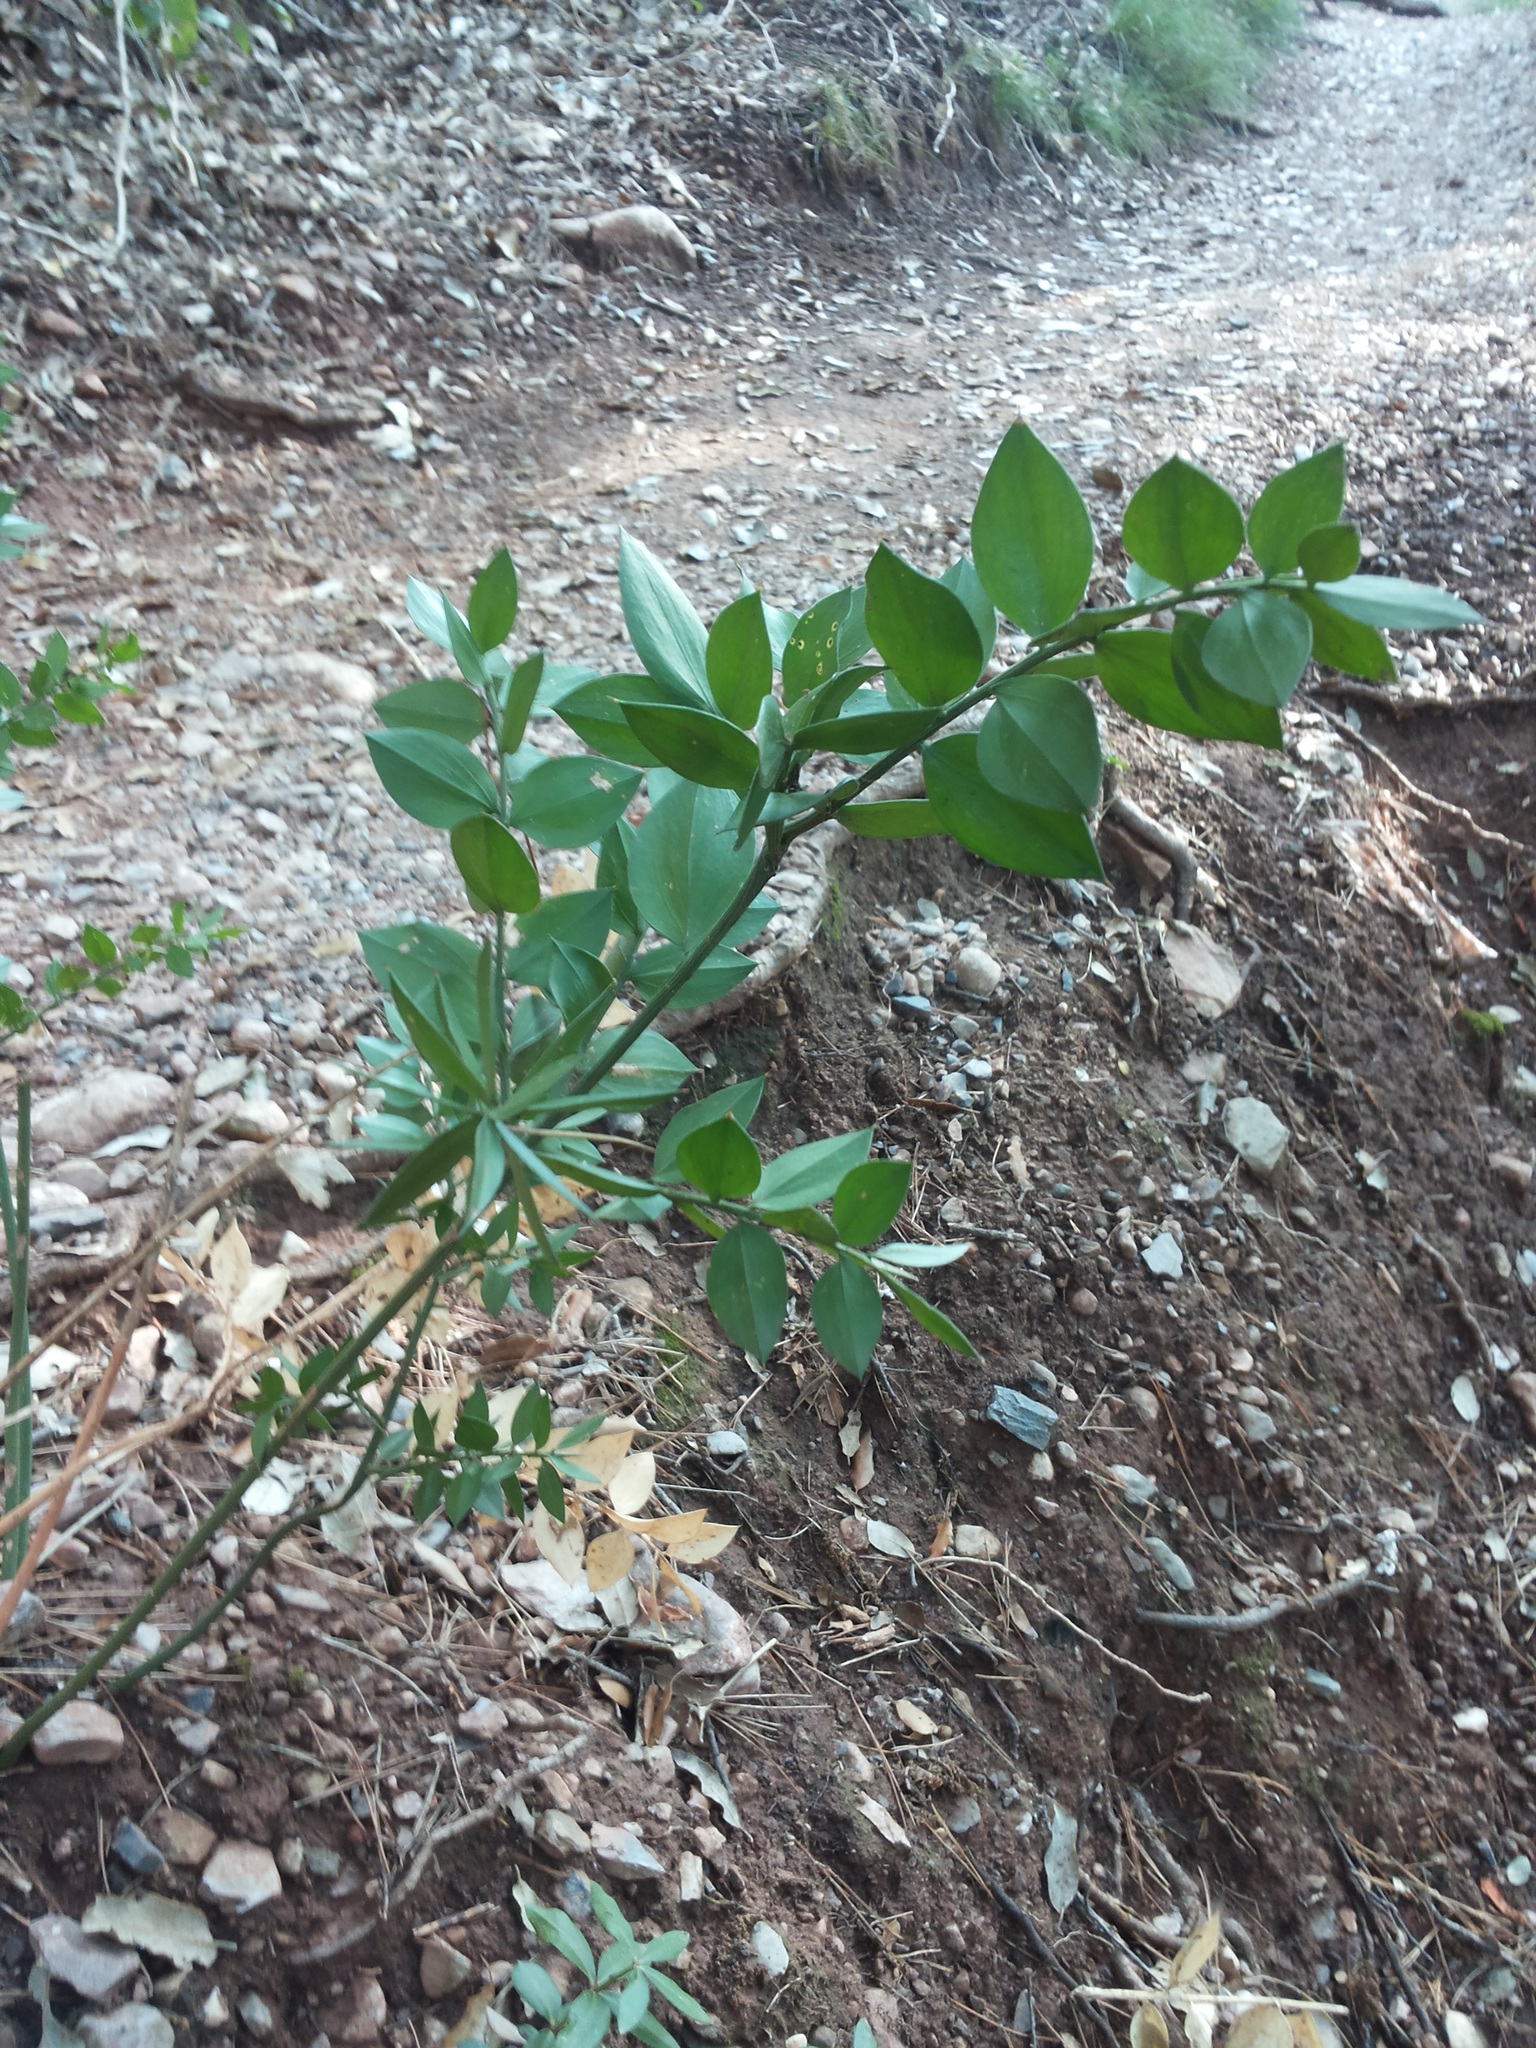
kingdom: Plantae
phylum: Tracheophyta
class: Liliopsida
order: Asparagales
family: Asparagaceae
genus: Ruscus
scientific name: Ruscus aculeatus
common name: Butcher's-broom
